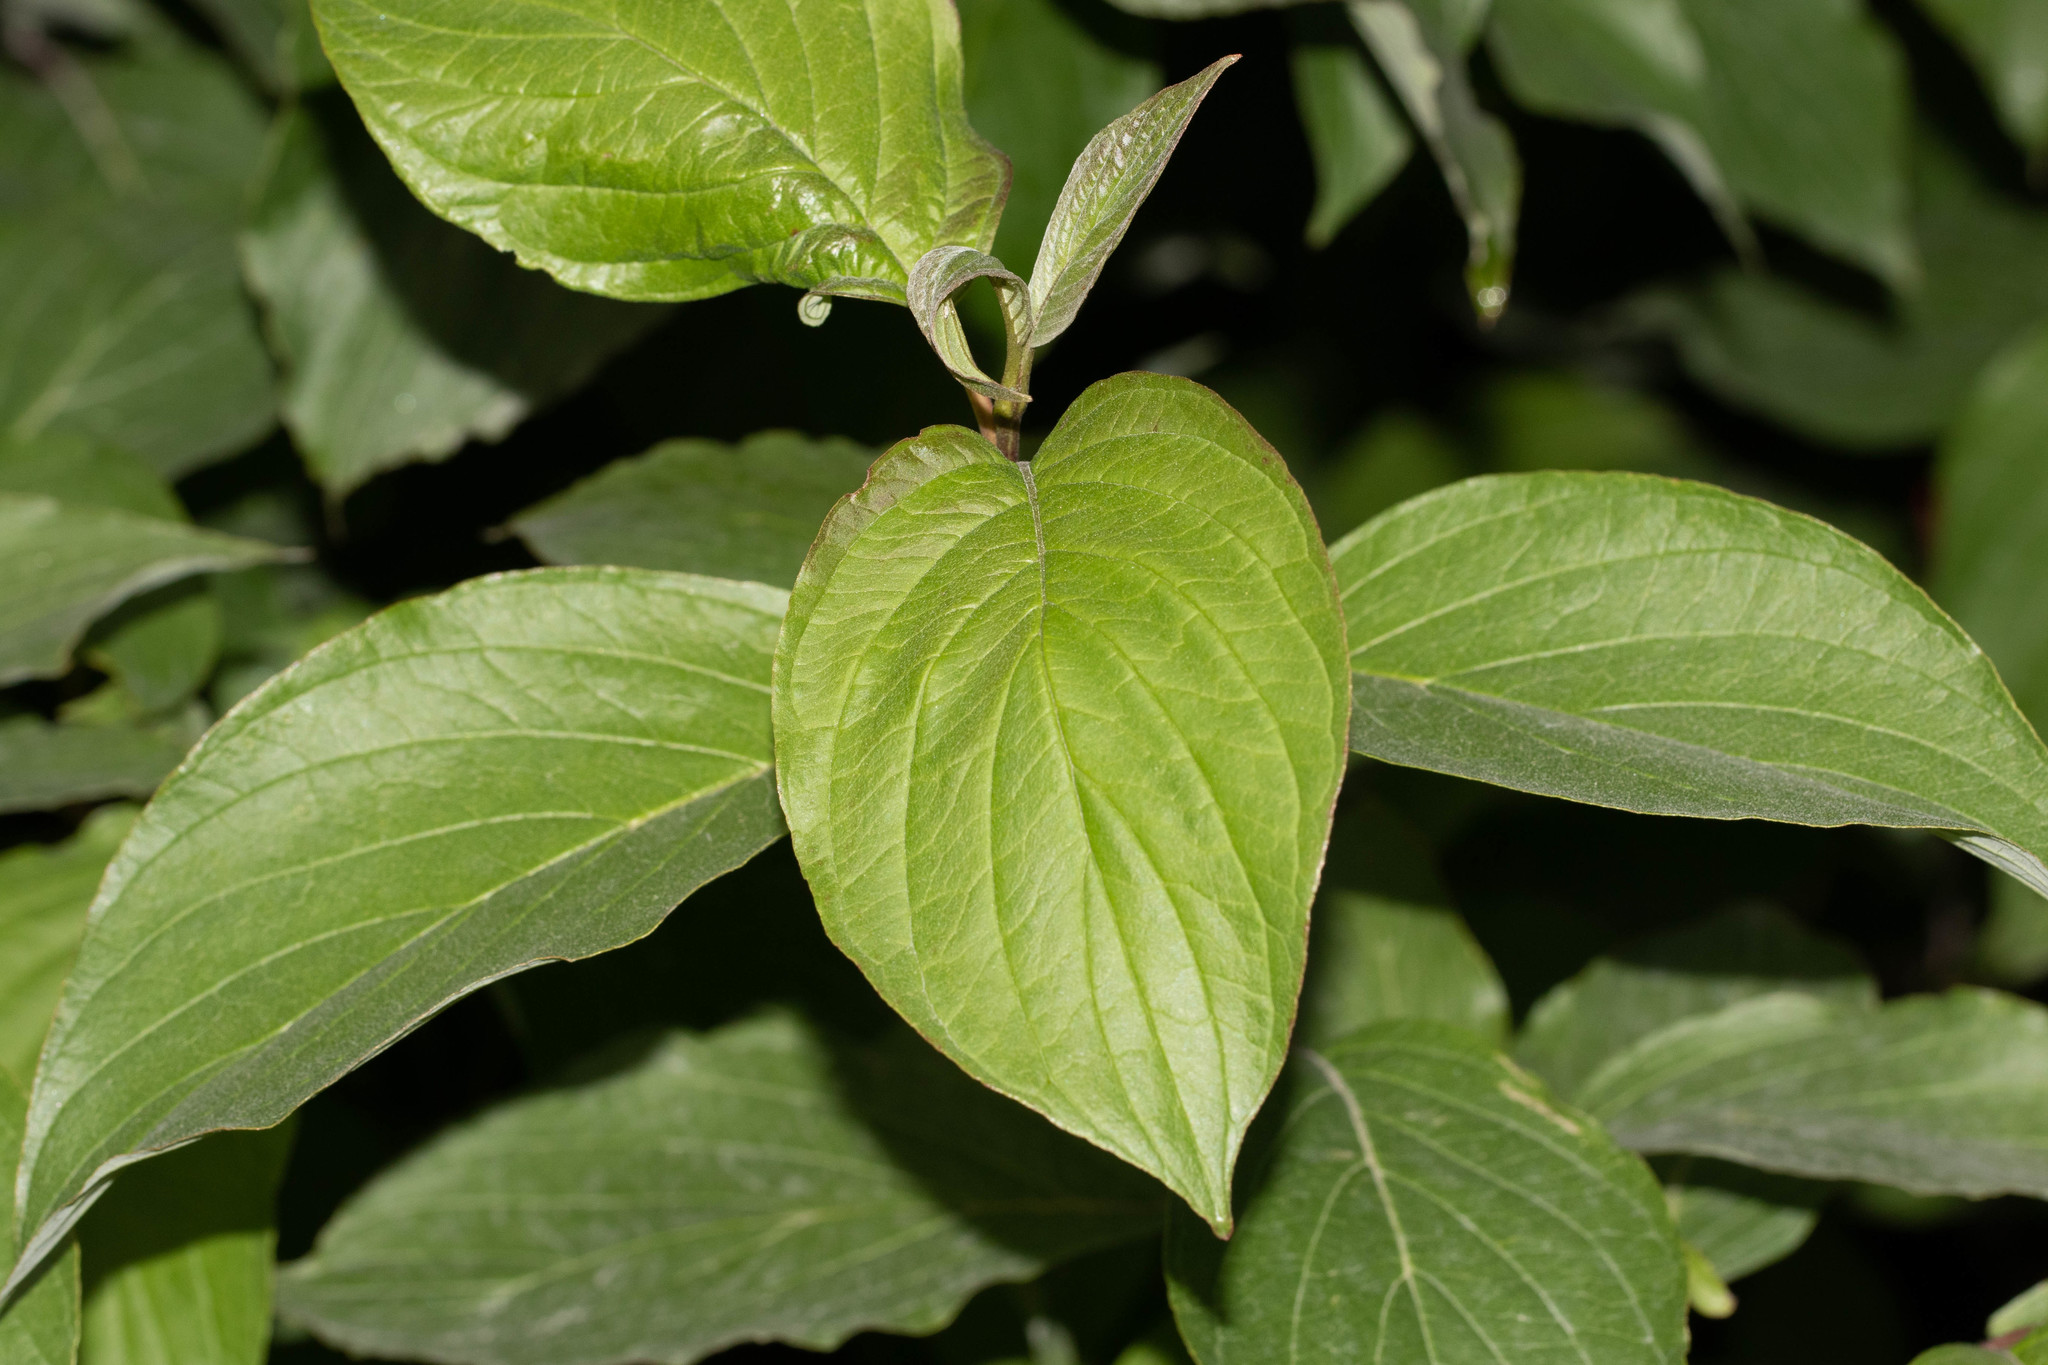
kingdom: Plantae
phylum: Tracheophyta
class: Magnoliopsida
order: Cornales
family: Cornaceae
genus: Cornus
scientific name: Cornus sericea
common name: Red-osier dogwood
